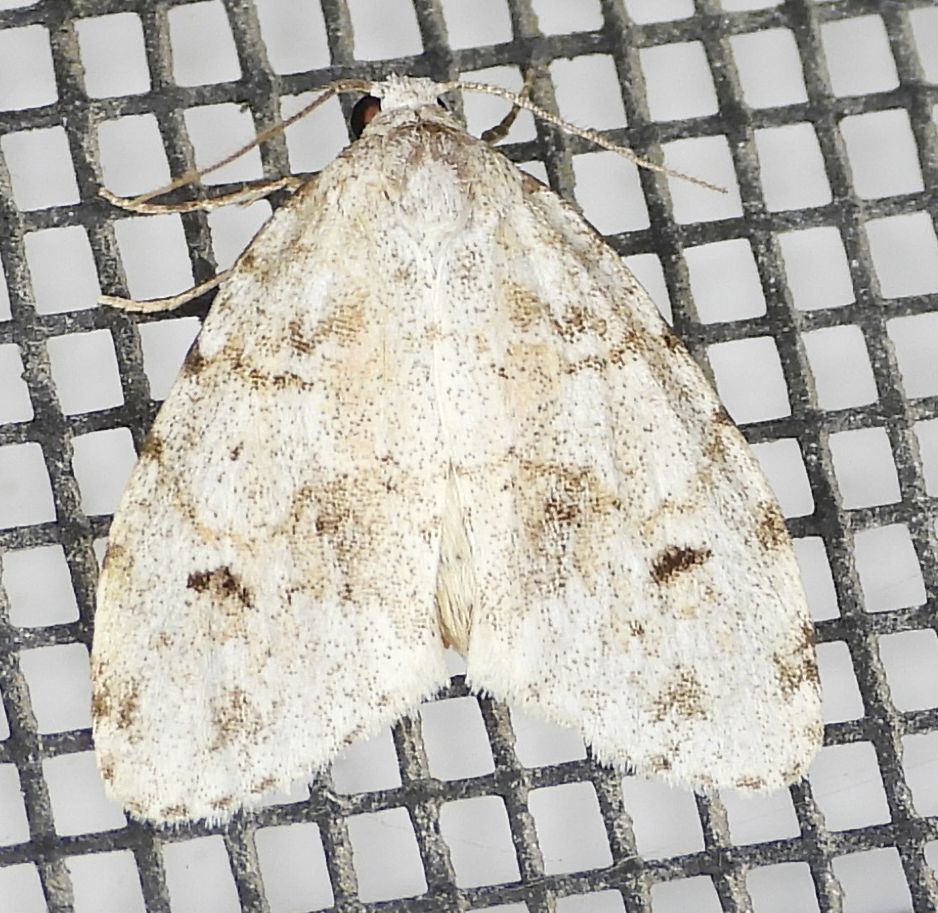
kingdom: Animalia
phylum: Arthropoda
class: Insecta
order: Lepidoptera
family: Erebidae
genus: Clemensia
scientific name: Clemensia albata
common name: Little white lichen moth
